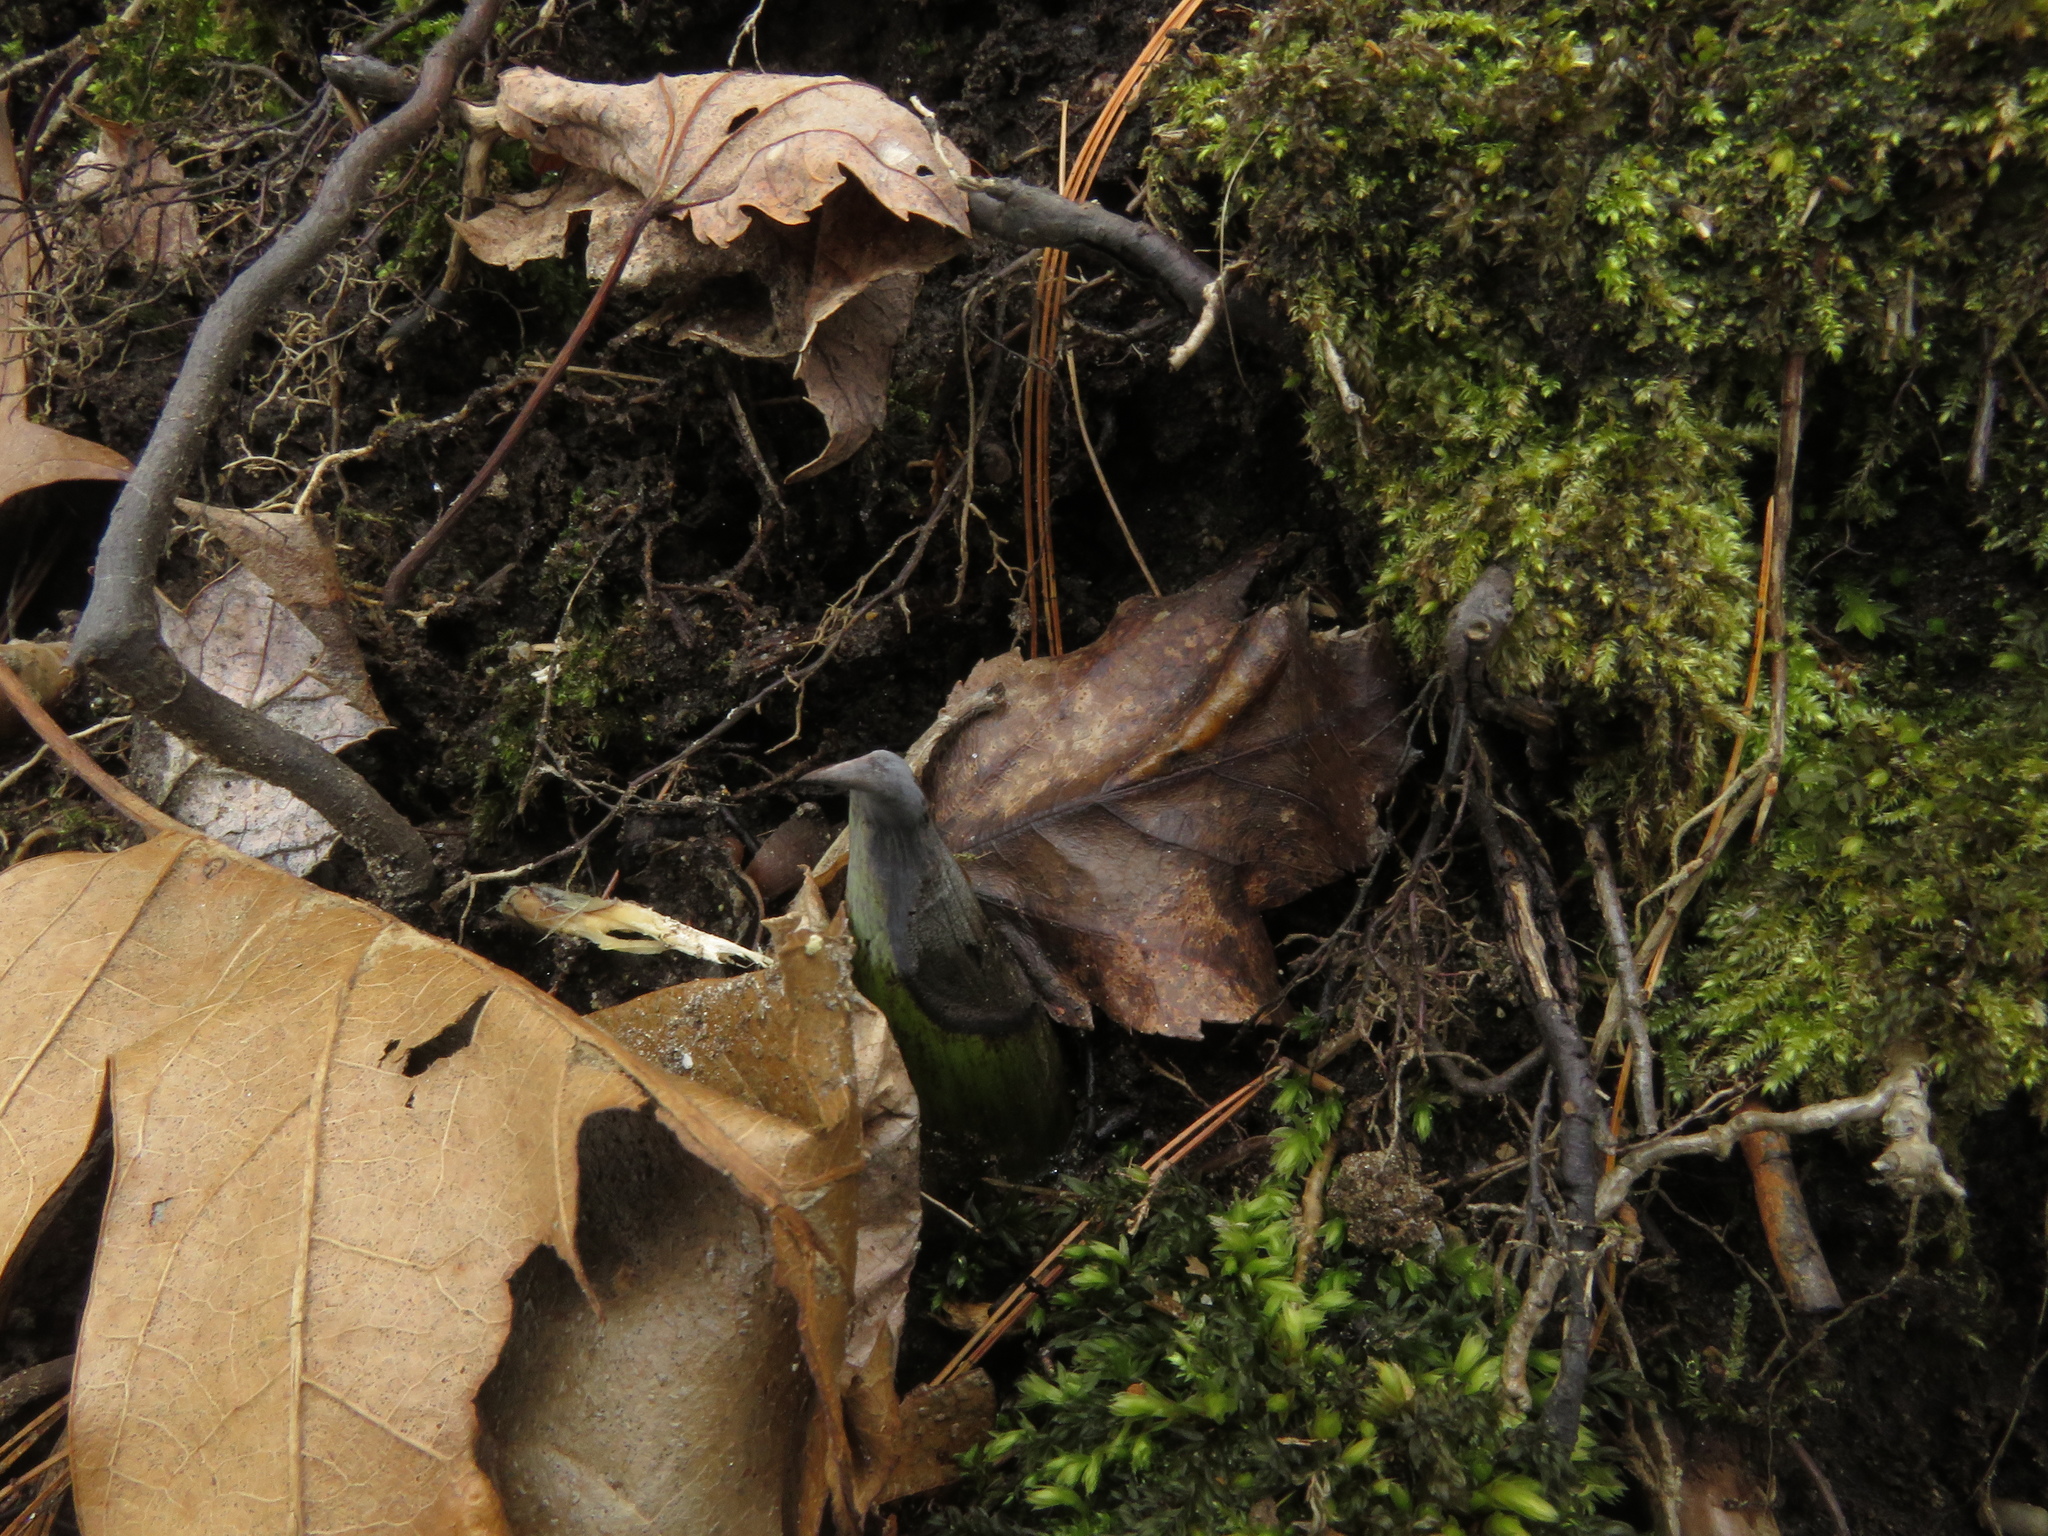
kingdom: Plantae
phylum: Tracheophyta
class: Liliopsida
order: Alismatales
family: Araceae
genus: Symplocarpus
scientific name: Symplocarpus foetidus
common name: Eastern skunk cabbage
